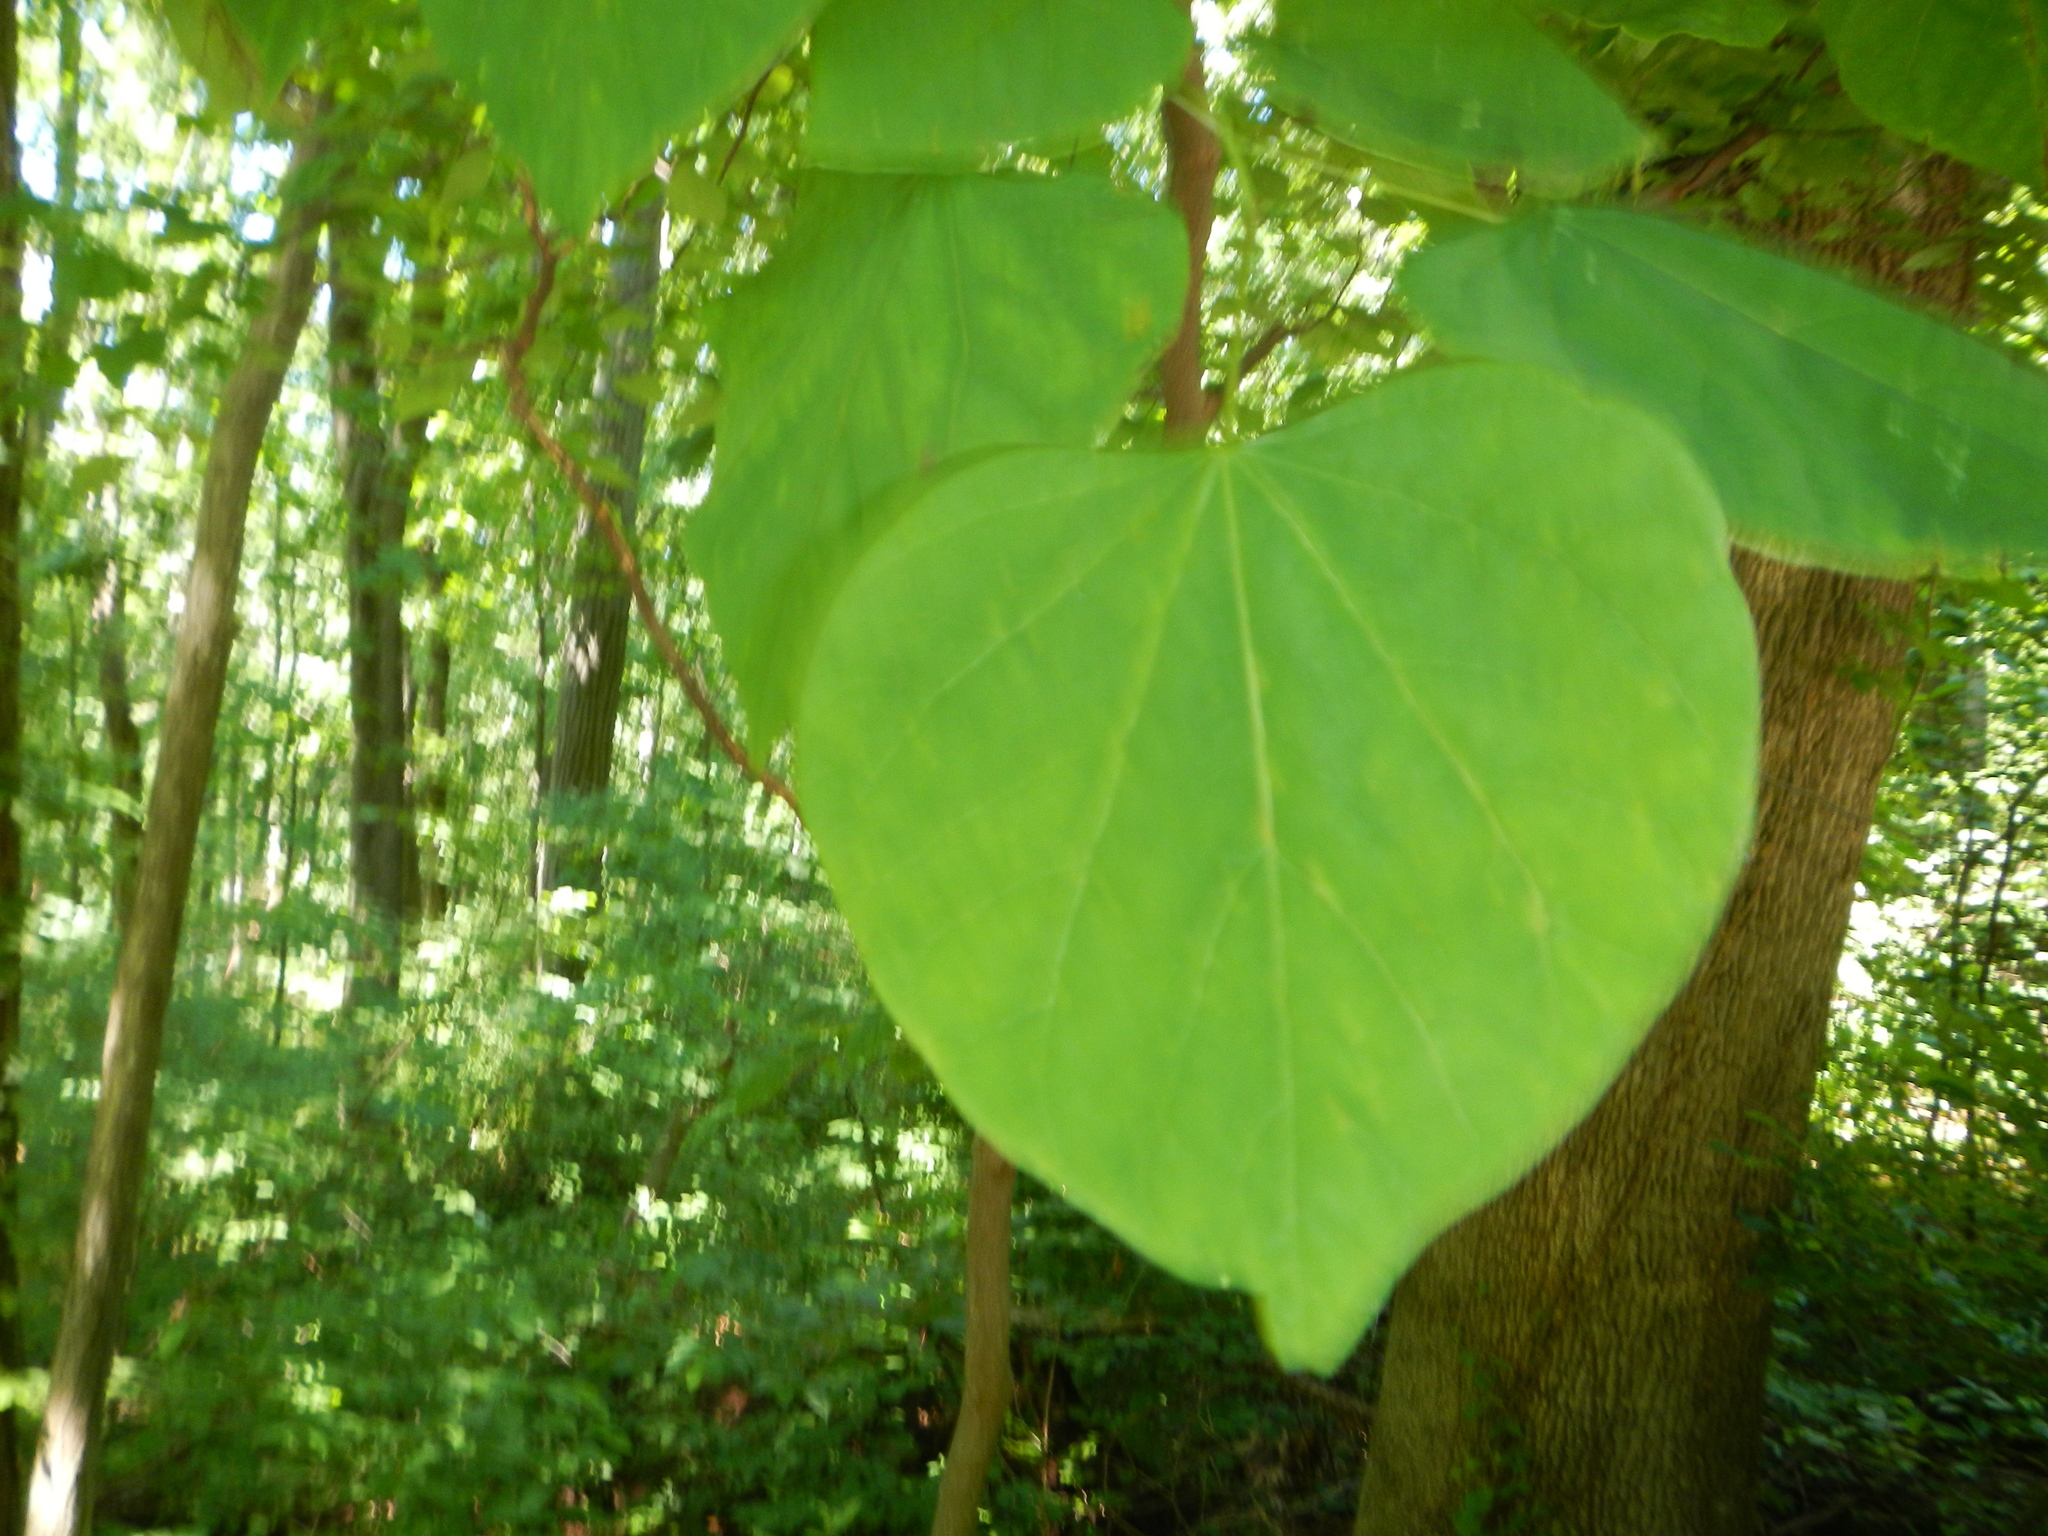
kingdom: Plantae
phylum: Tracheophyta
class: Magnoliopsida
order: Fabales
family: Fabaceae
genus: Cercis
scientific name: Cercis canadensis
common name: Eastern redbud
